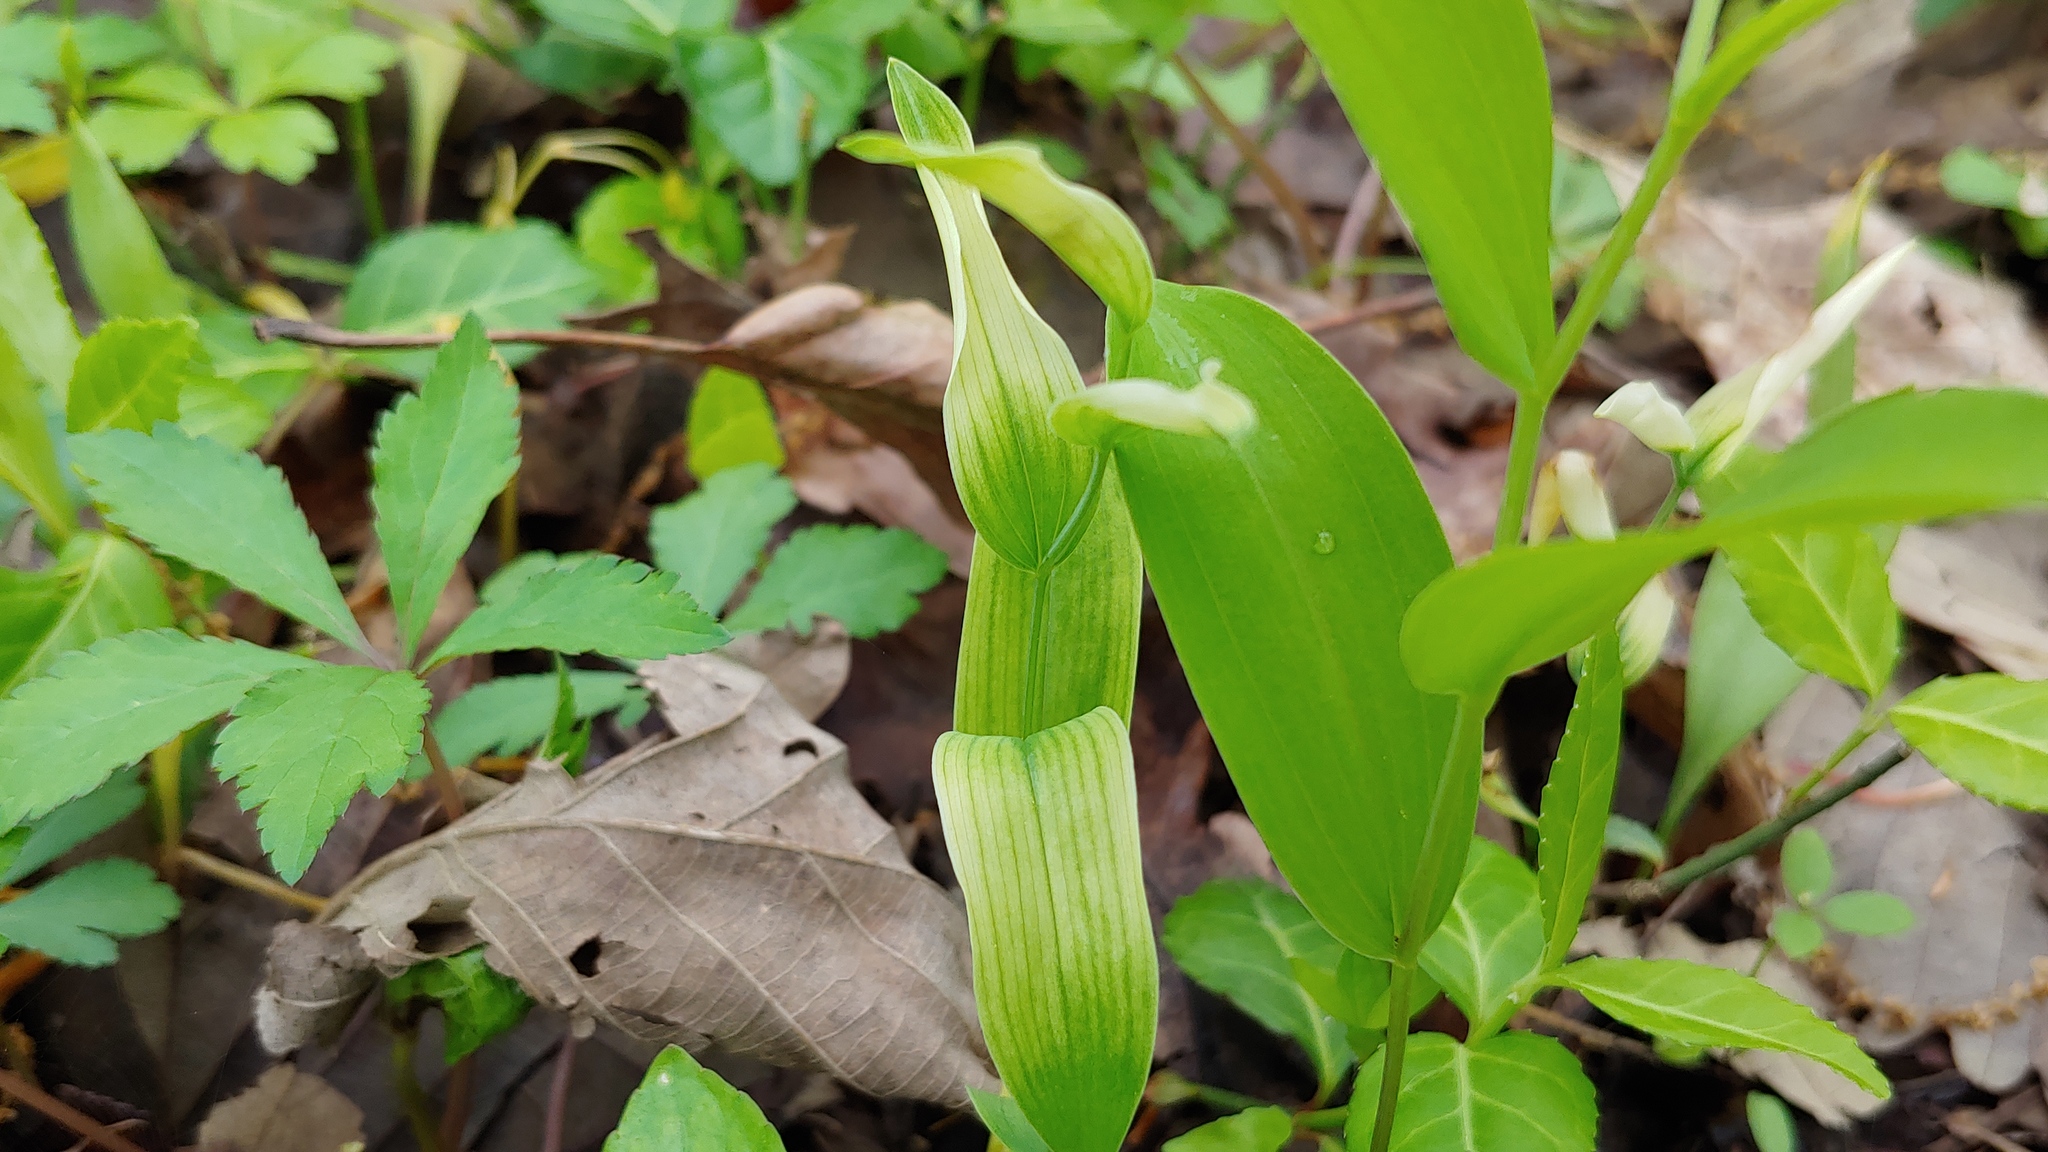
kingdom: Plantae
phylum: Tracheophyta
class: Liliopsida
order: Liliales
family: Colchicaceae
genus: Uvularia
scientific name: Uvularia floridana
